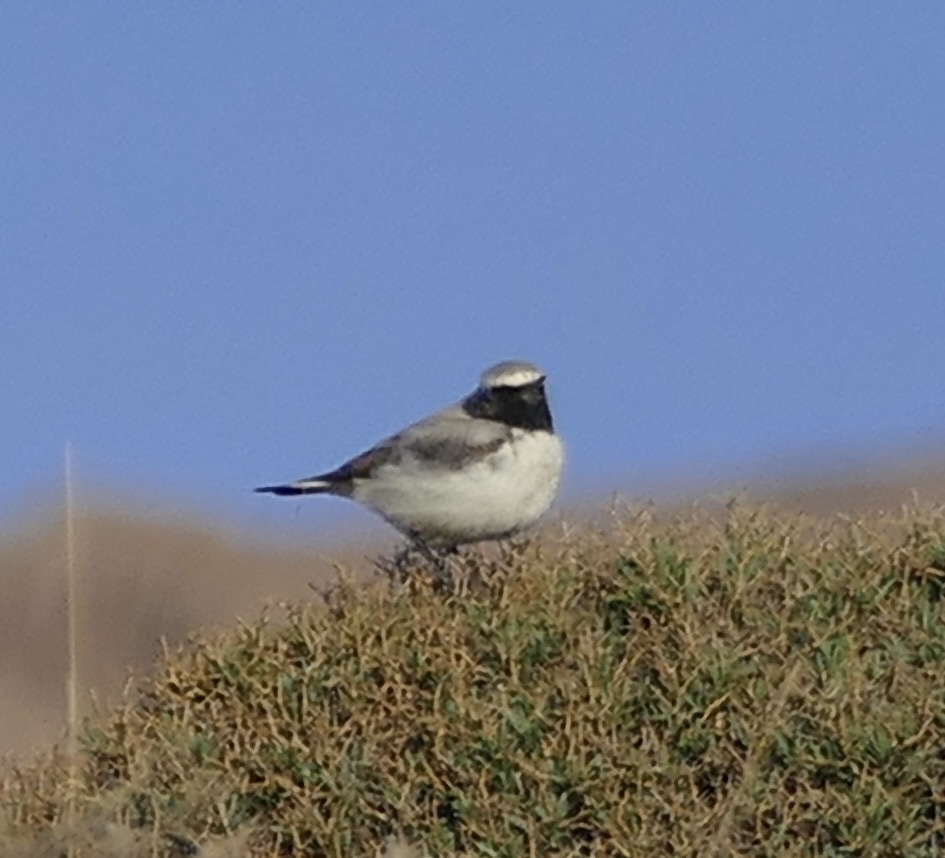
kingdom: Animalia
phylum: Chordata
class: Aves
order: Passeriformes
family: Muscicapidae
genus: Oenanthe
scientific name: Oenanthe oenanthe
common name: Northern wheatear
